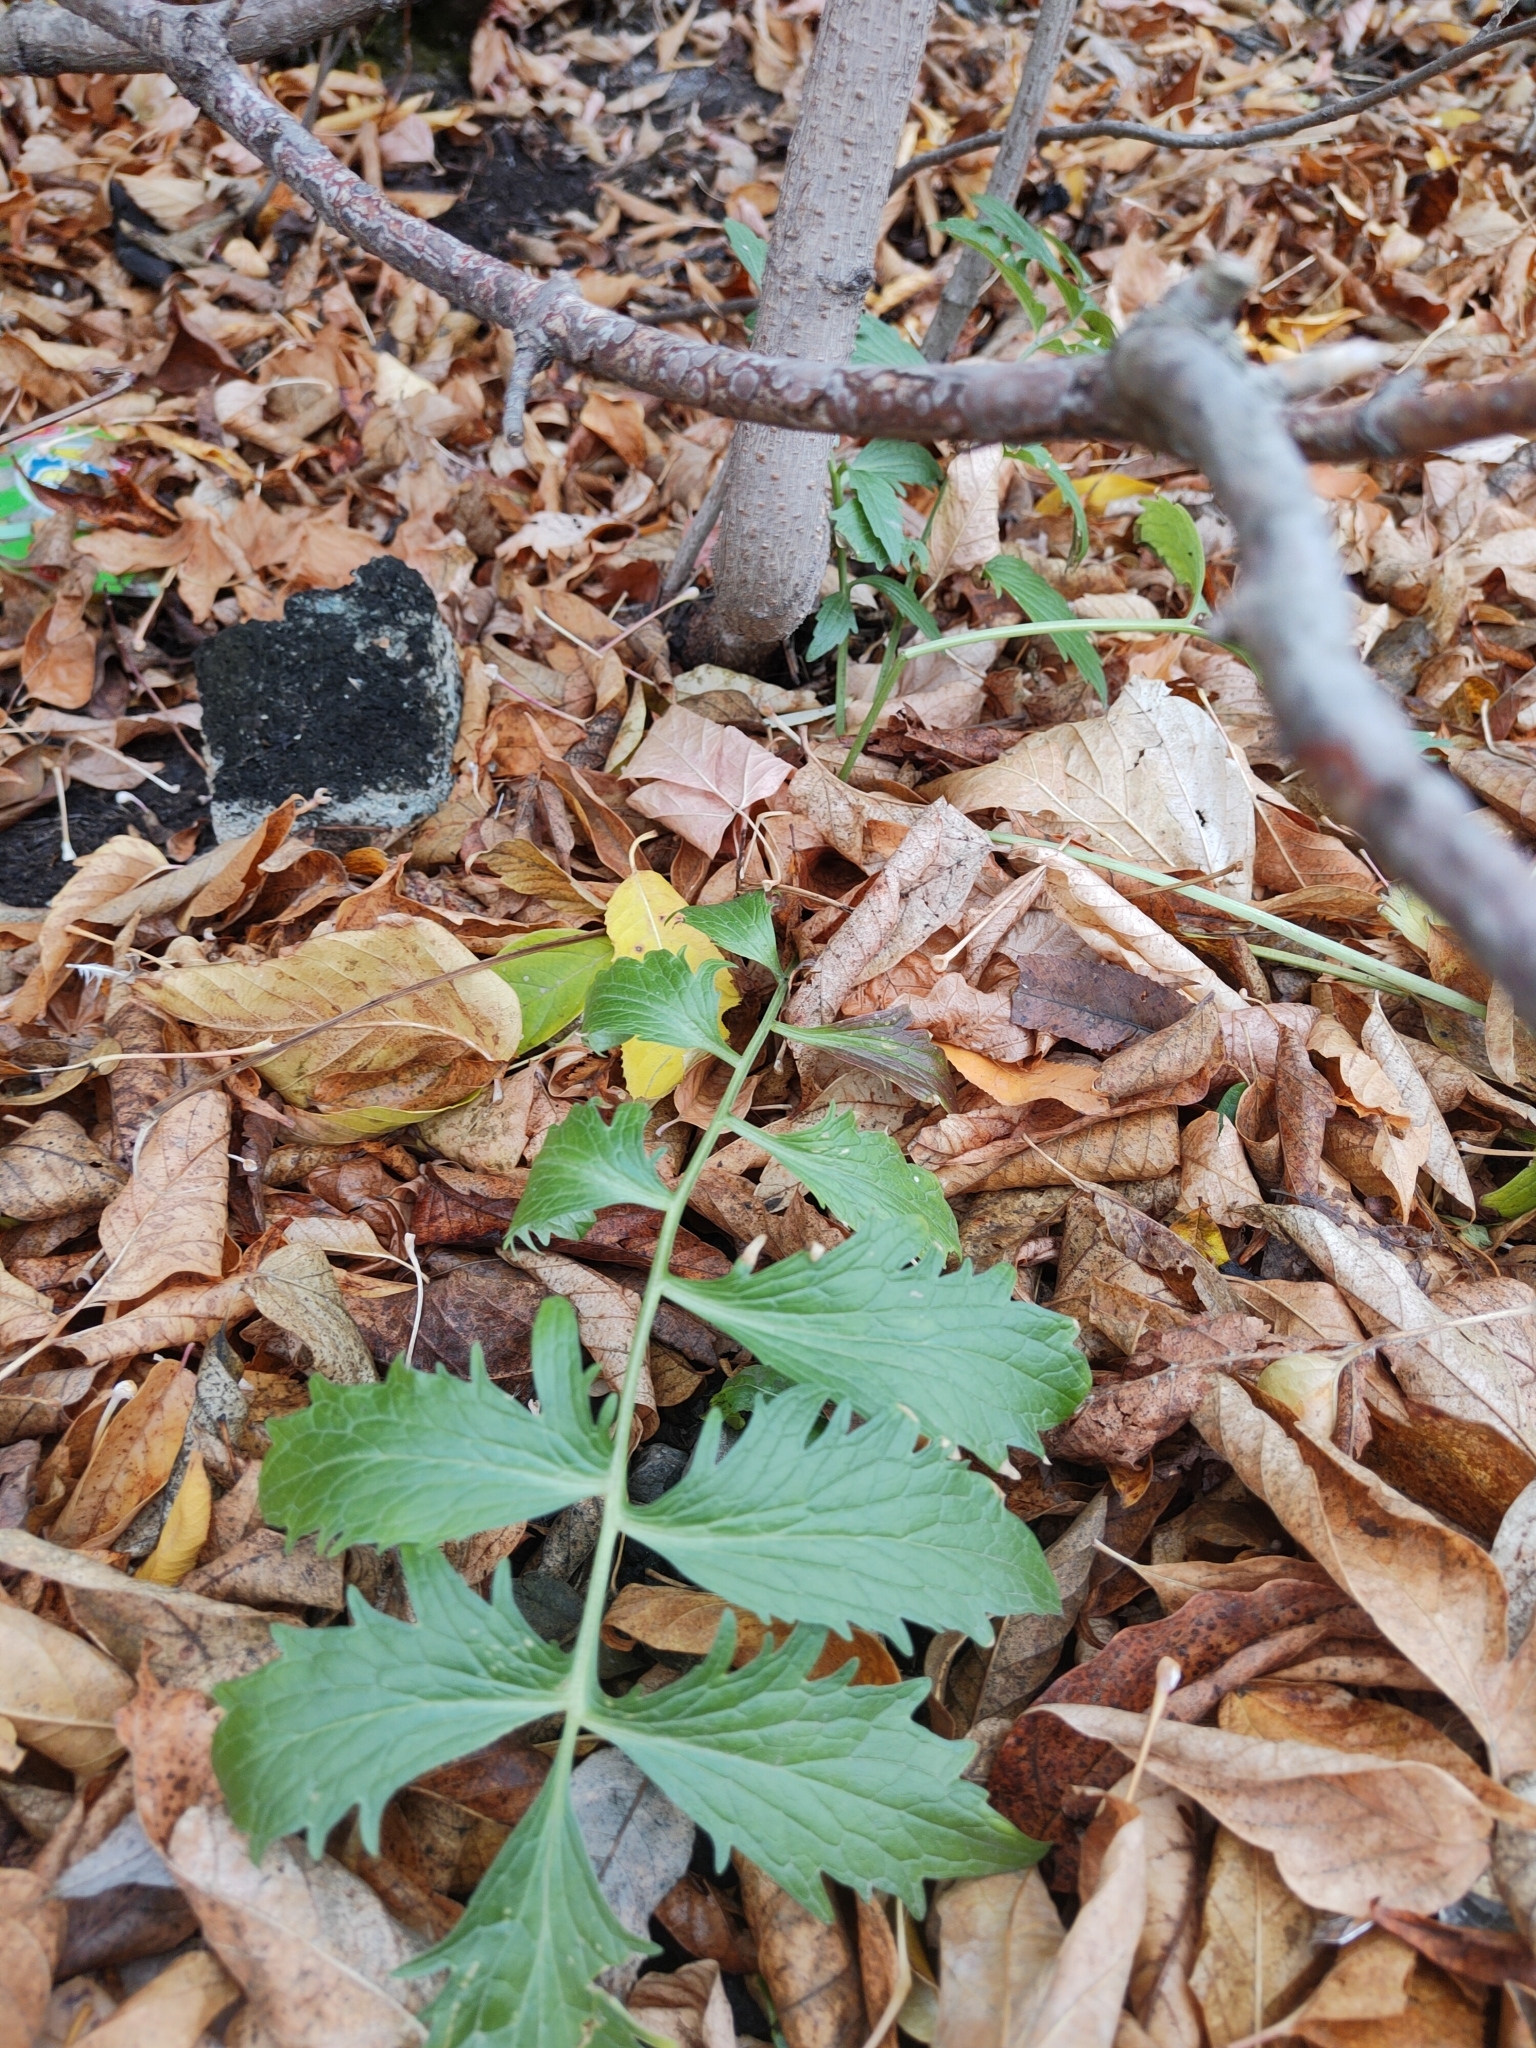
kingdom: Plantae
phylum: Tracheophyta
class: Magnoliopsida
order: Dipsacales
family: Caprifoliaceae
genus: Valeriana
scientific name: Valeriana wolgensis
